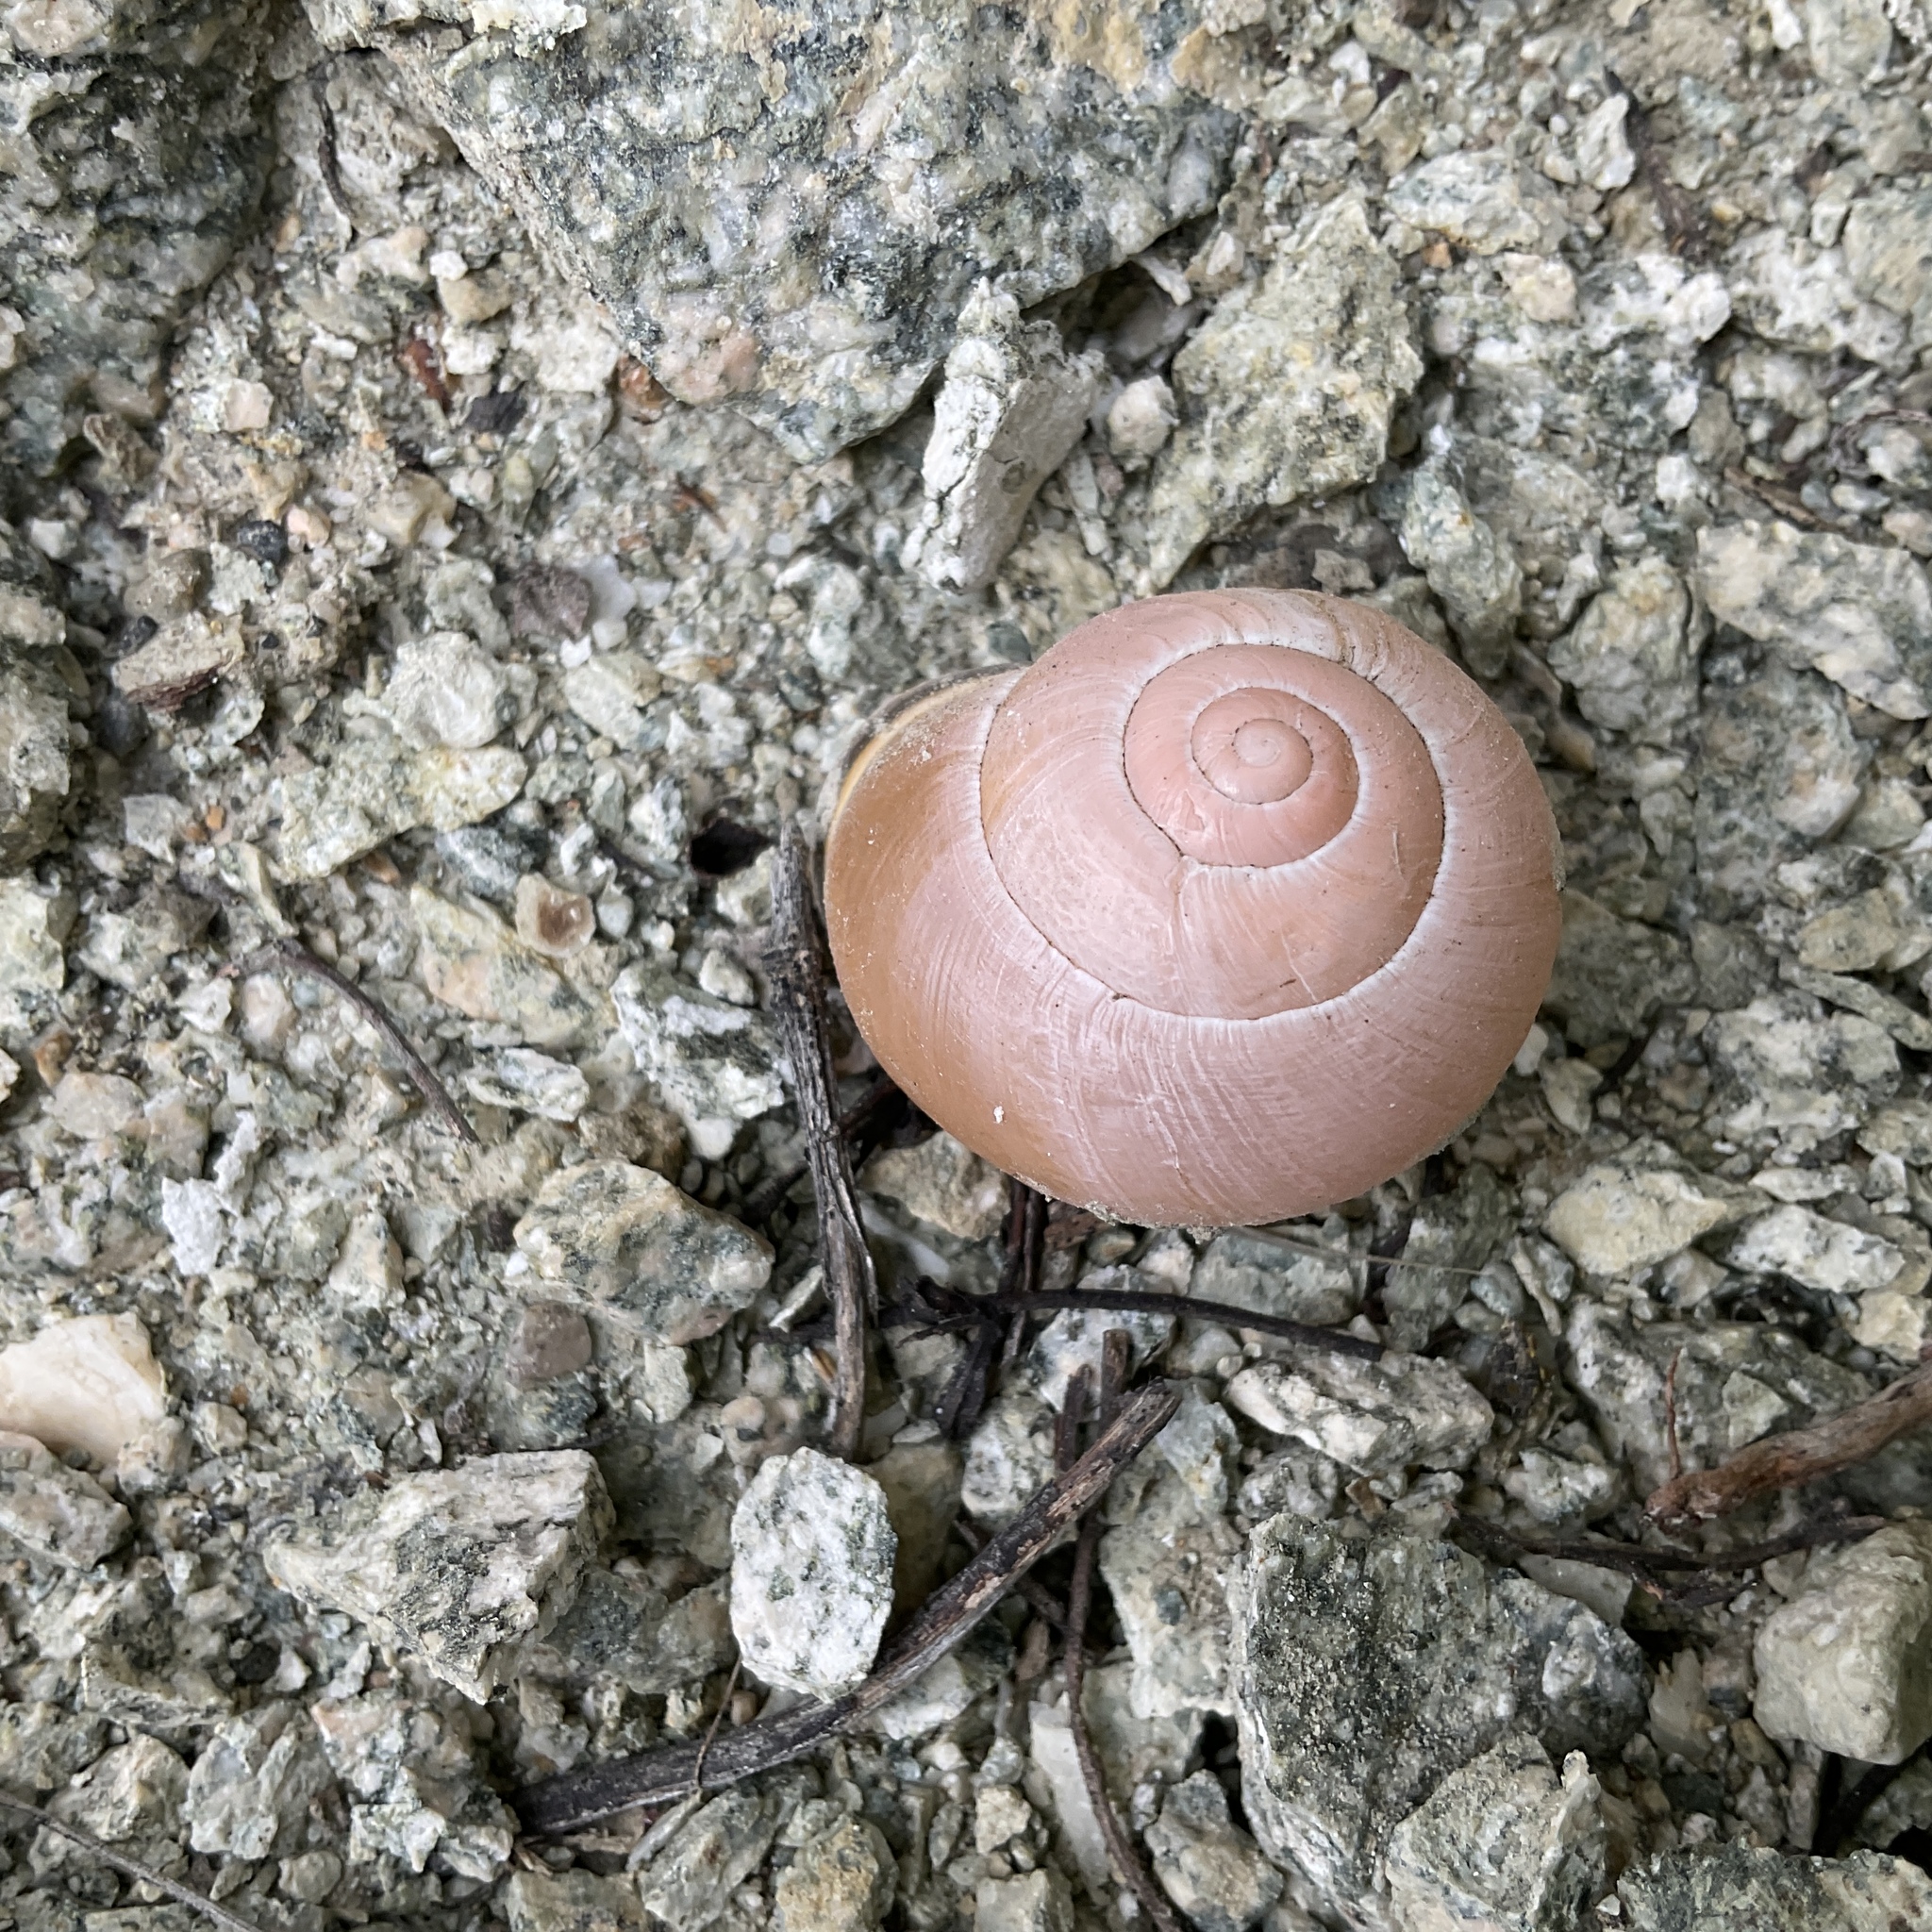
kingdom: Animalia
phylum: Mollusca
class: Gastropoda
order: Stylommatophora
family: Helicidae
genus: Cepaea
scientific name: Cepaea nemoralis
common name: Grovesnail
